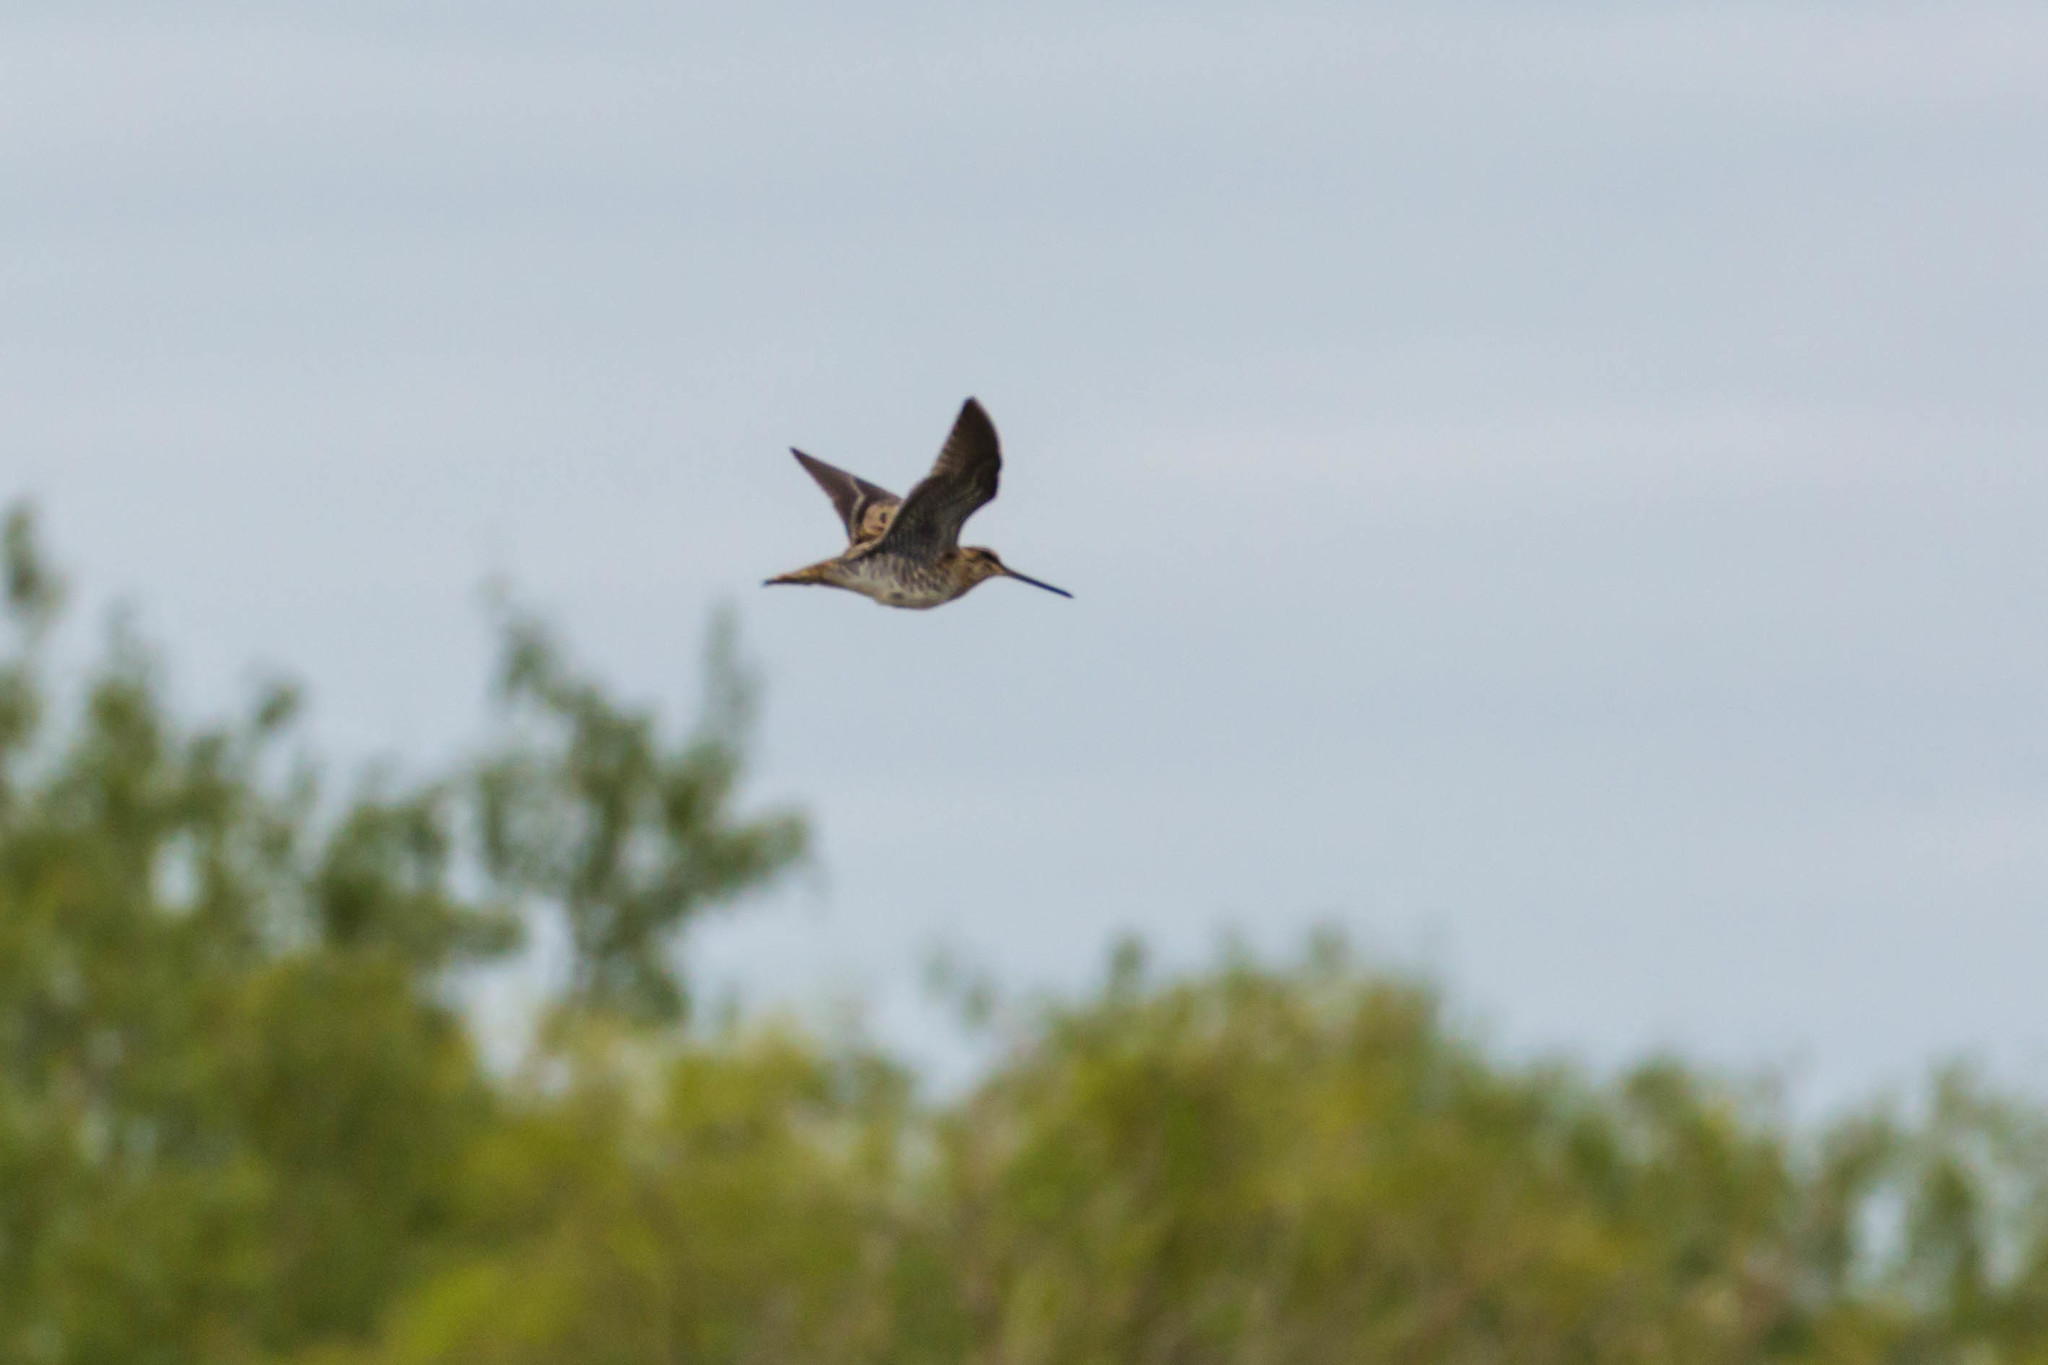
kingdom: Animalia
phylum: Chordata
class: Aves
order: Charadriiformes
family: Scolopacidae
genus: Gallinago
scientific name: Gallinago delicata
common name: Wilson's snipe
